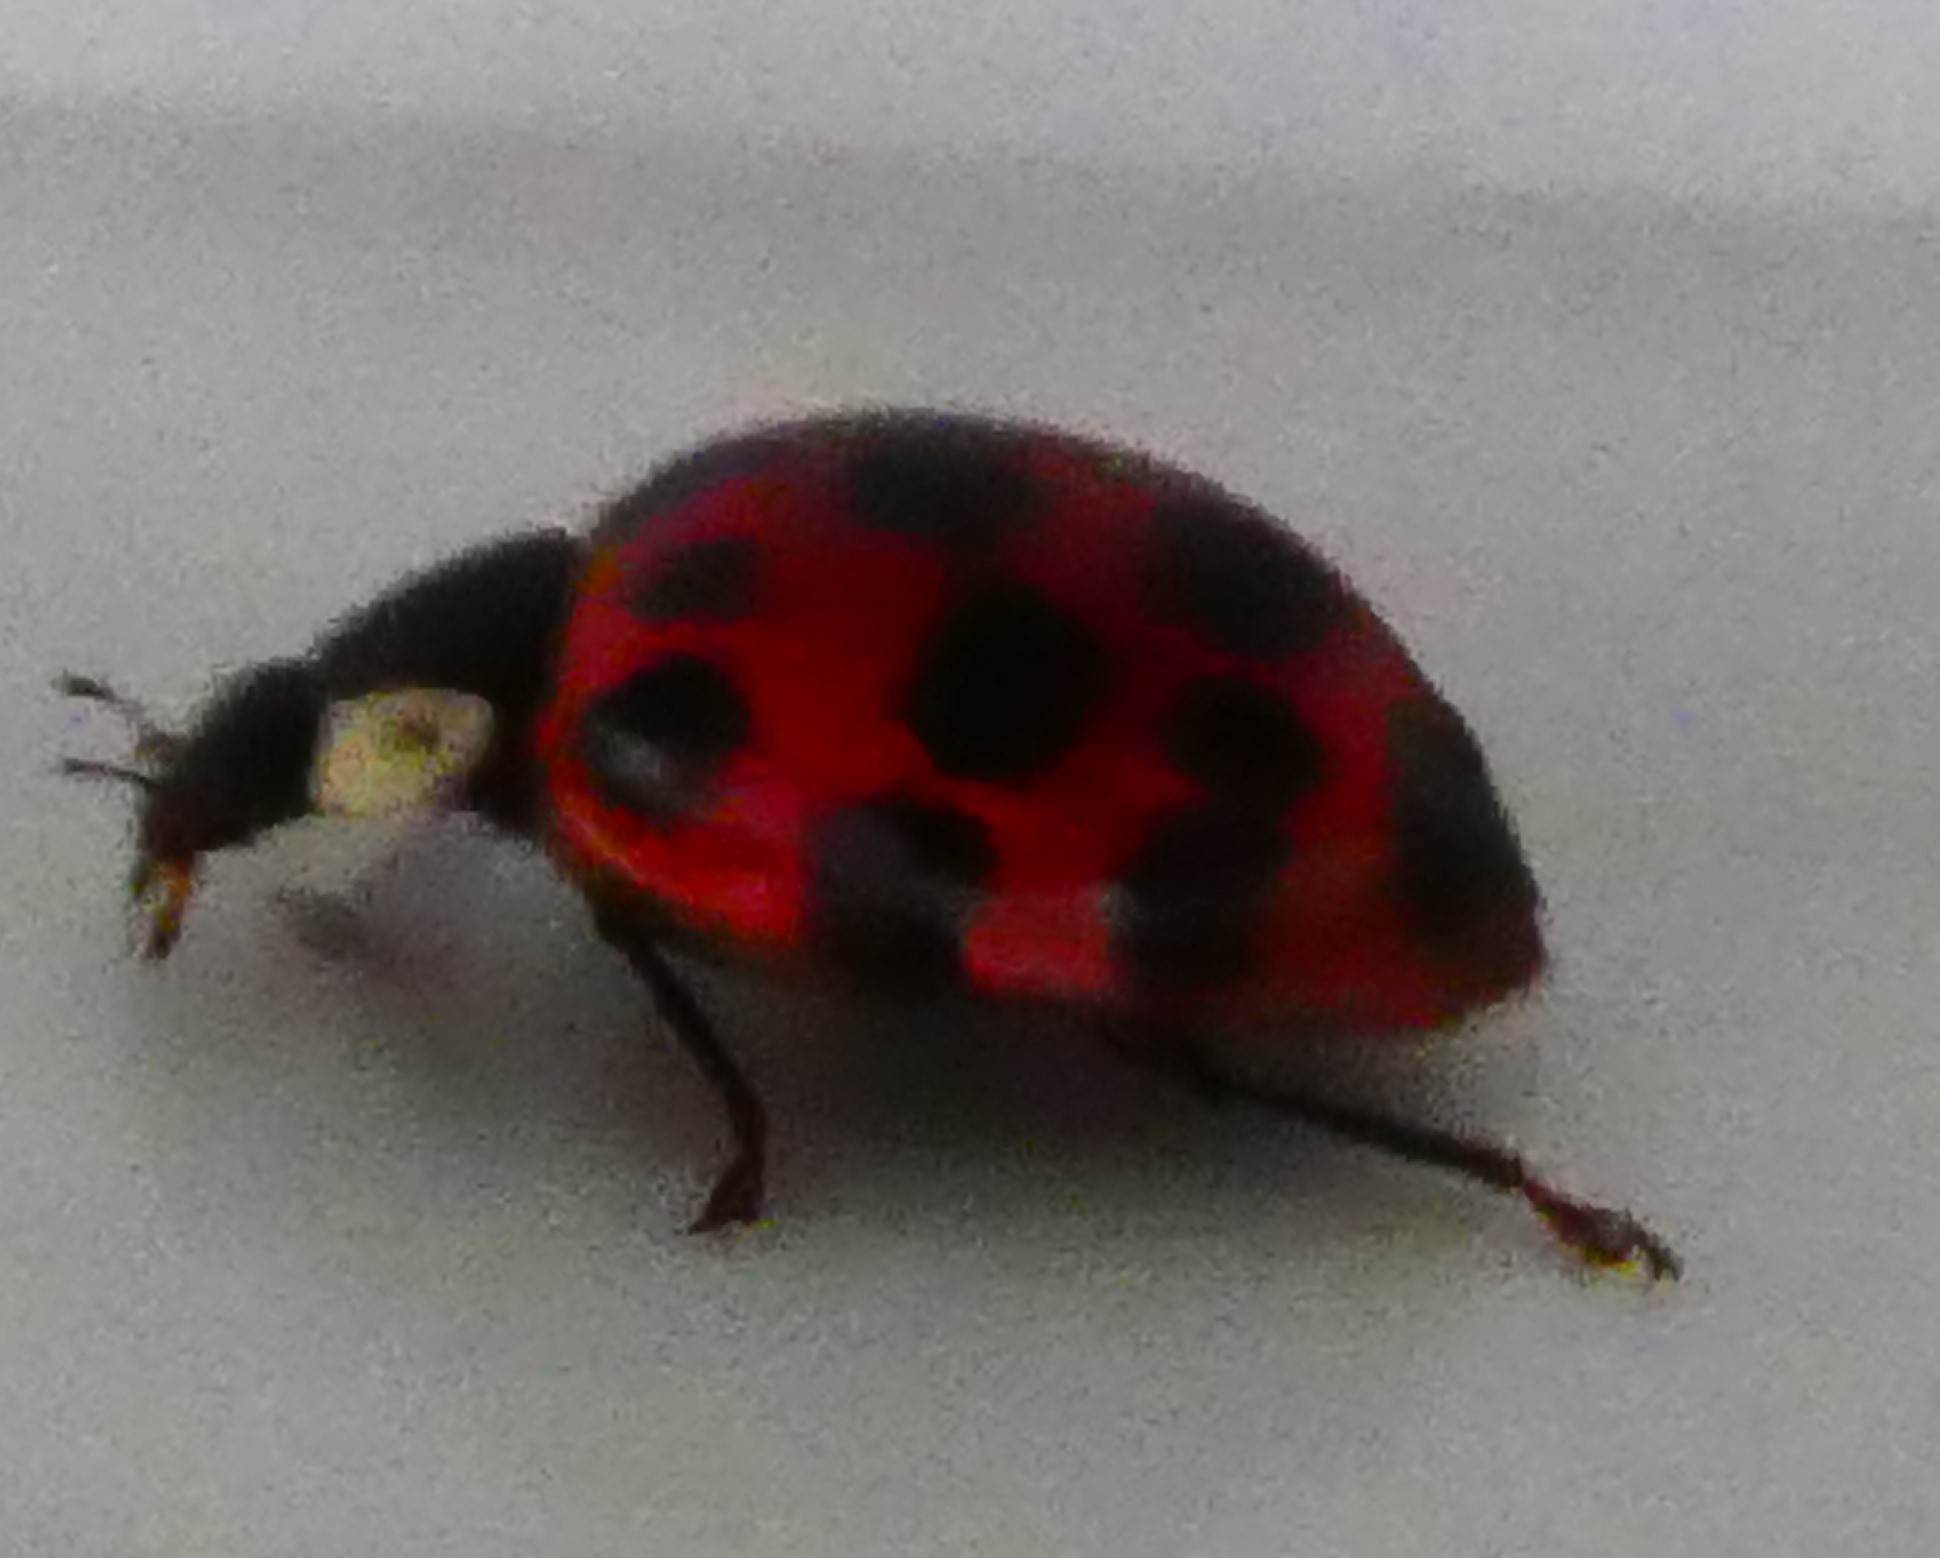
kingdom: Animalia
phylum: Arthropoda
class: Insecta
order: Coleoptera
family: Coccinellidae
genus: Harmonia
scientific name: Harmonia axyridis
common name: Harlequin ladybird
